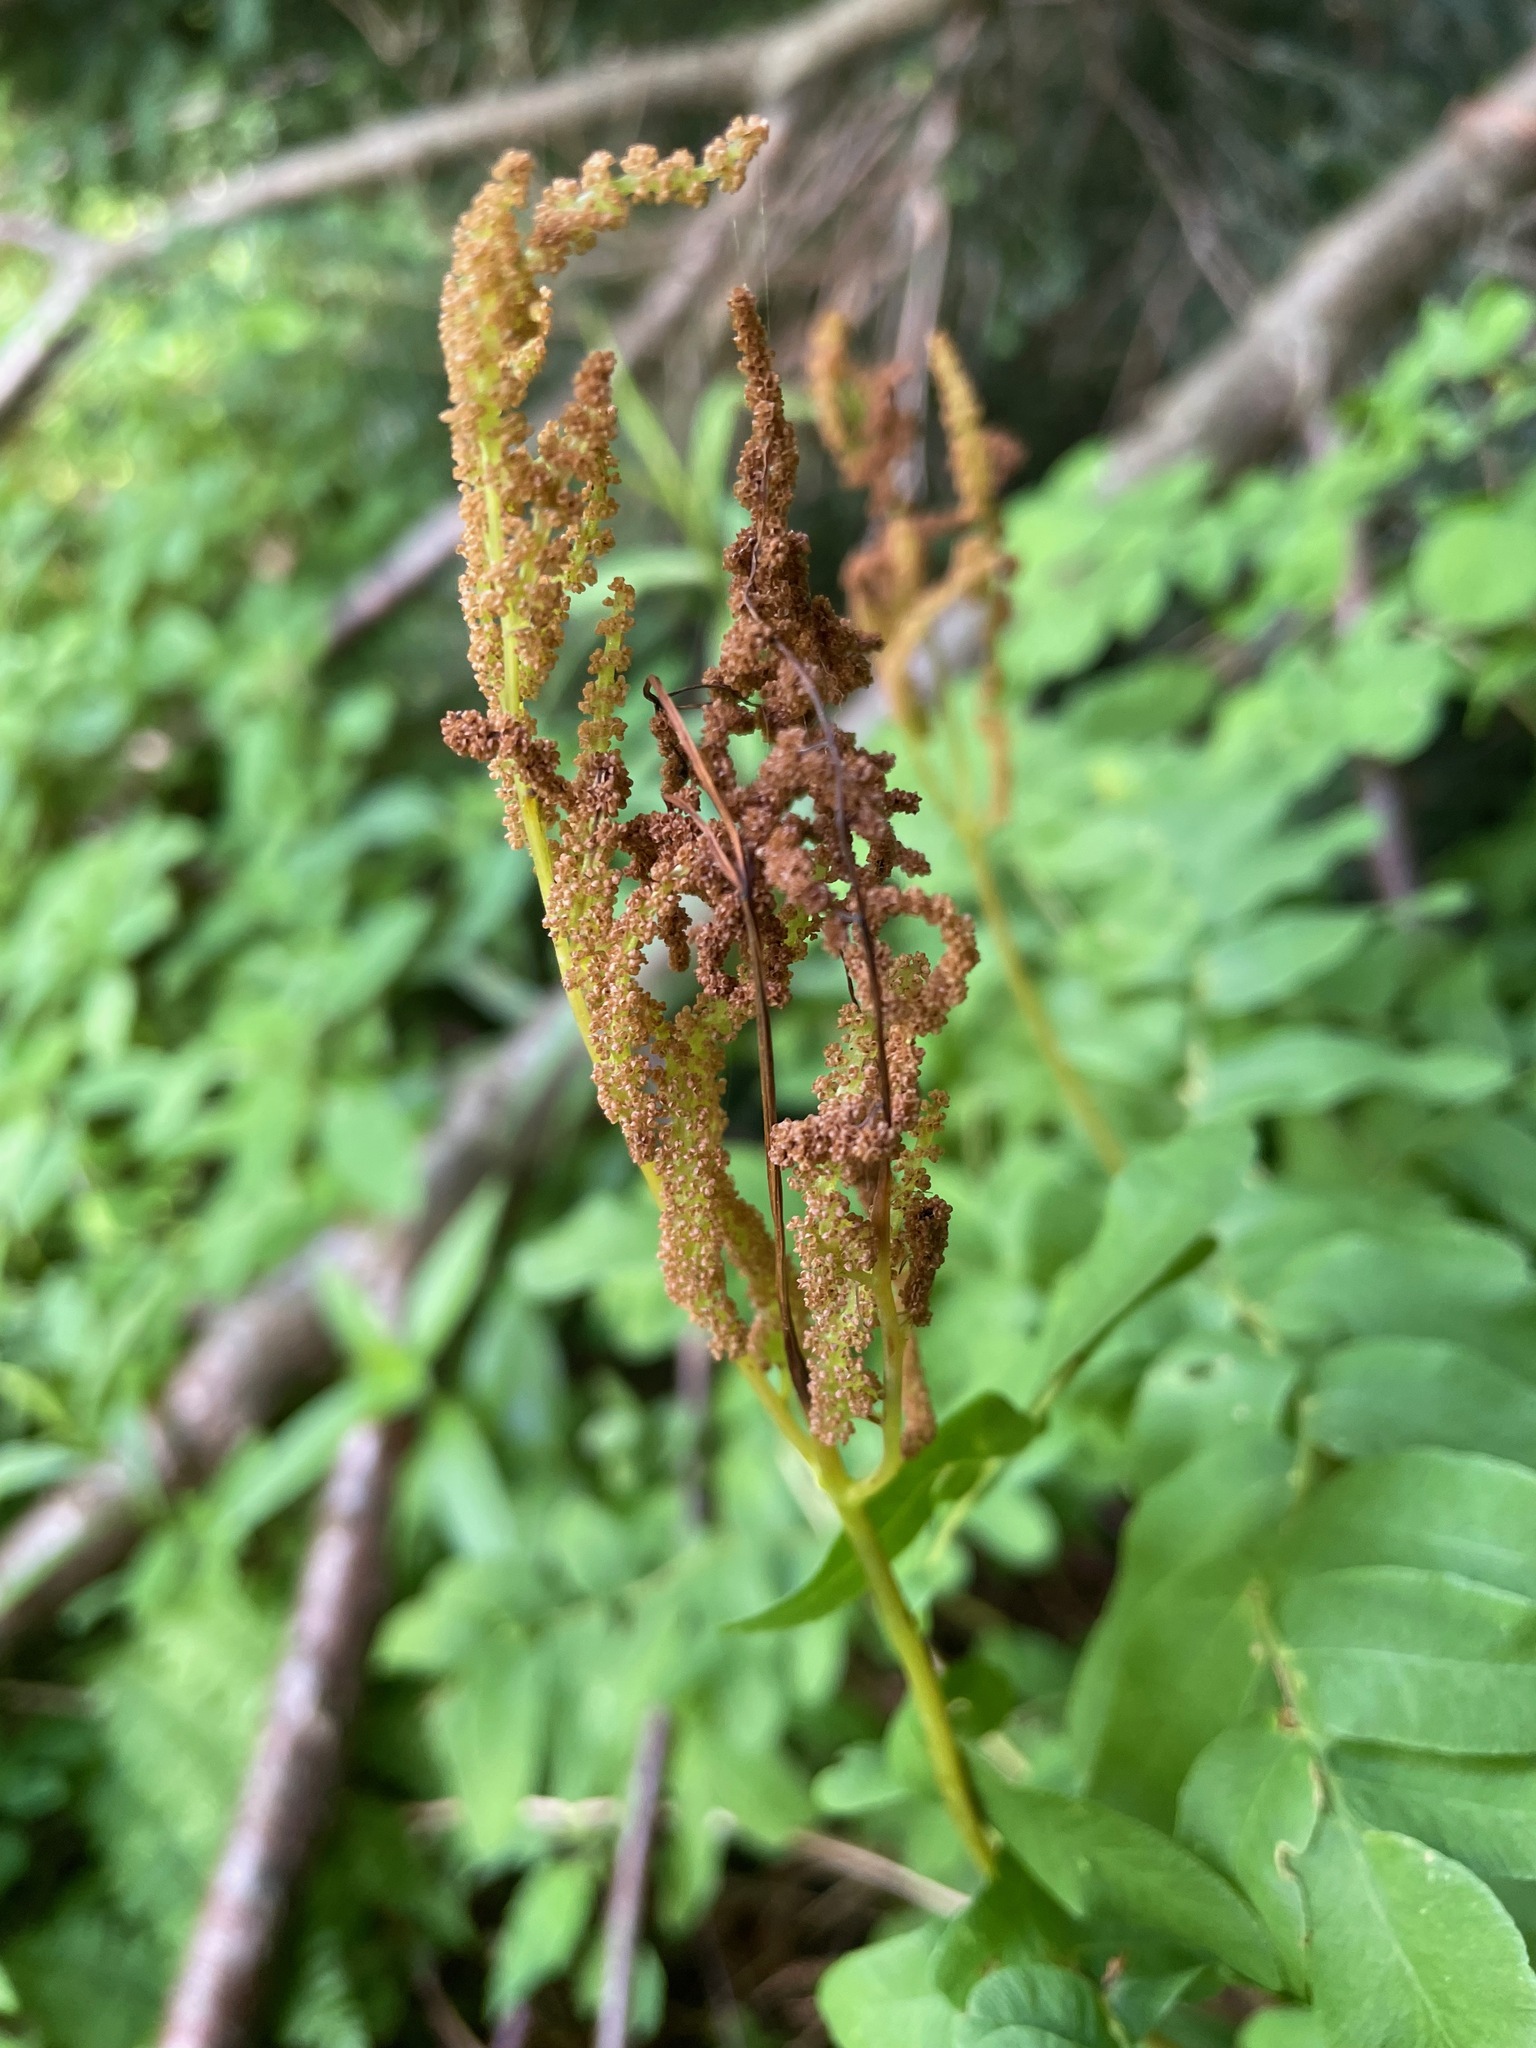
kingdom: Plantae
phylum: Tracheophyta
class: Polypodiopsida
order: Osmundales
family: Osmundaceae
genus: Osmunda
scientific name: Osmunda spectabilis
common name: American royal fern
